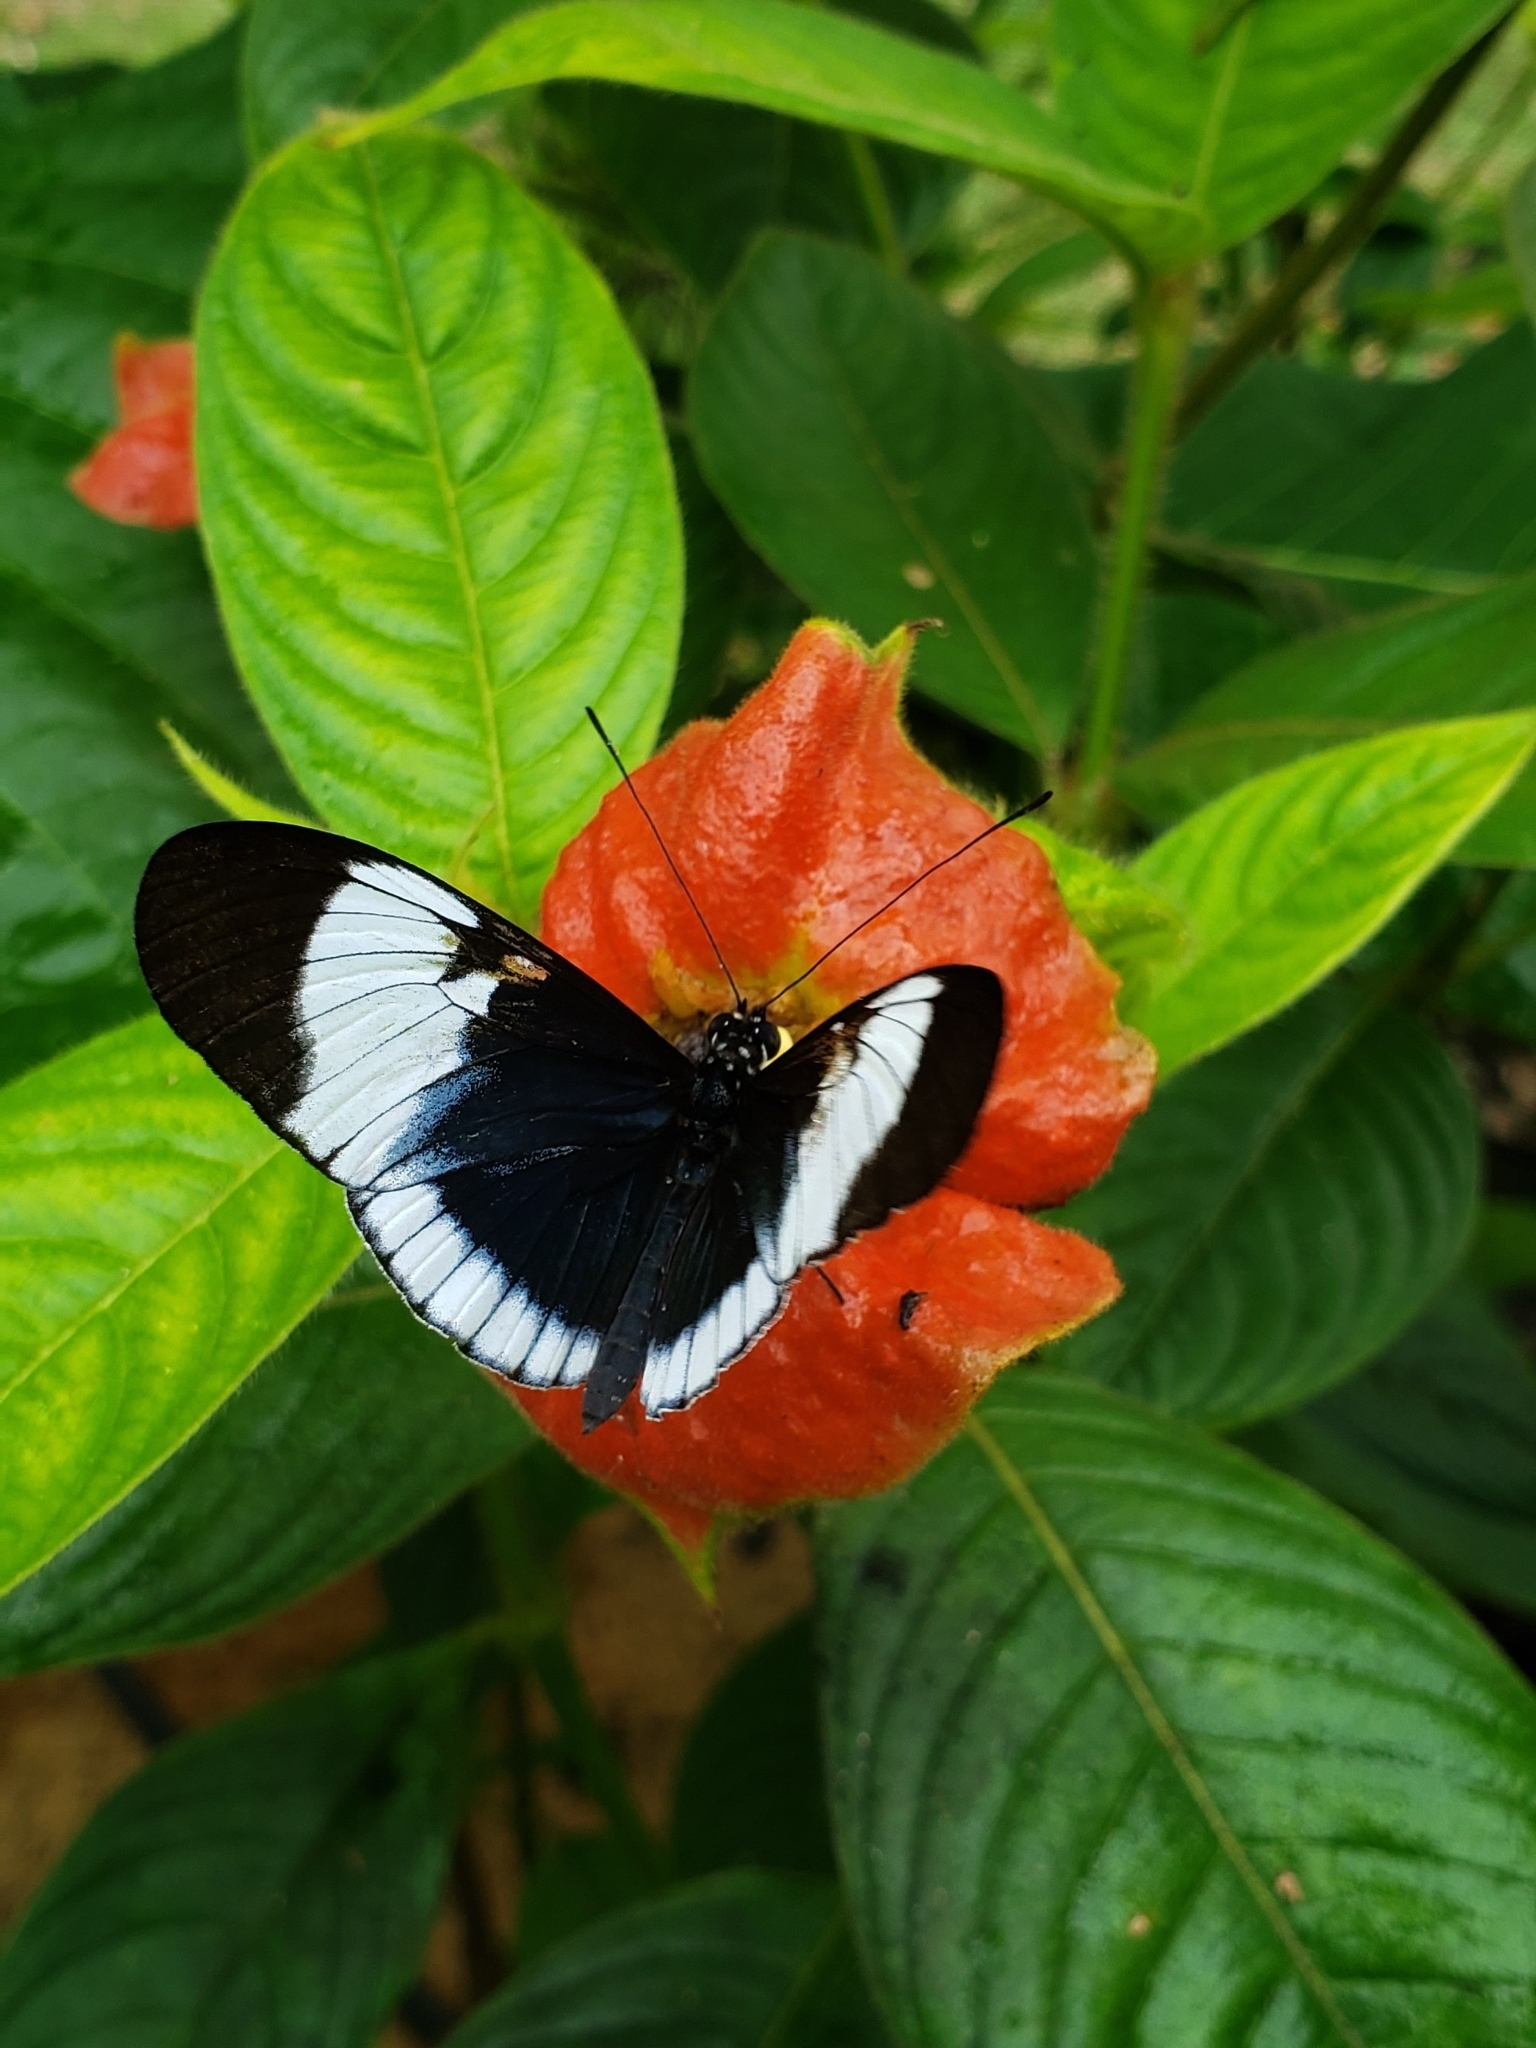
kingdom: Animalia
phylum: Arthropoda
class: Insecta
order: Lepidoptera
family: Nymphalidae
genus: Heliconius
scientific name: Heliconius cydno
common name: Cydno longwing
